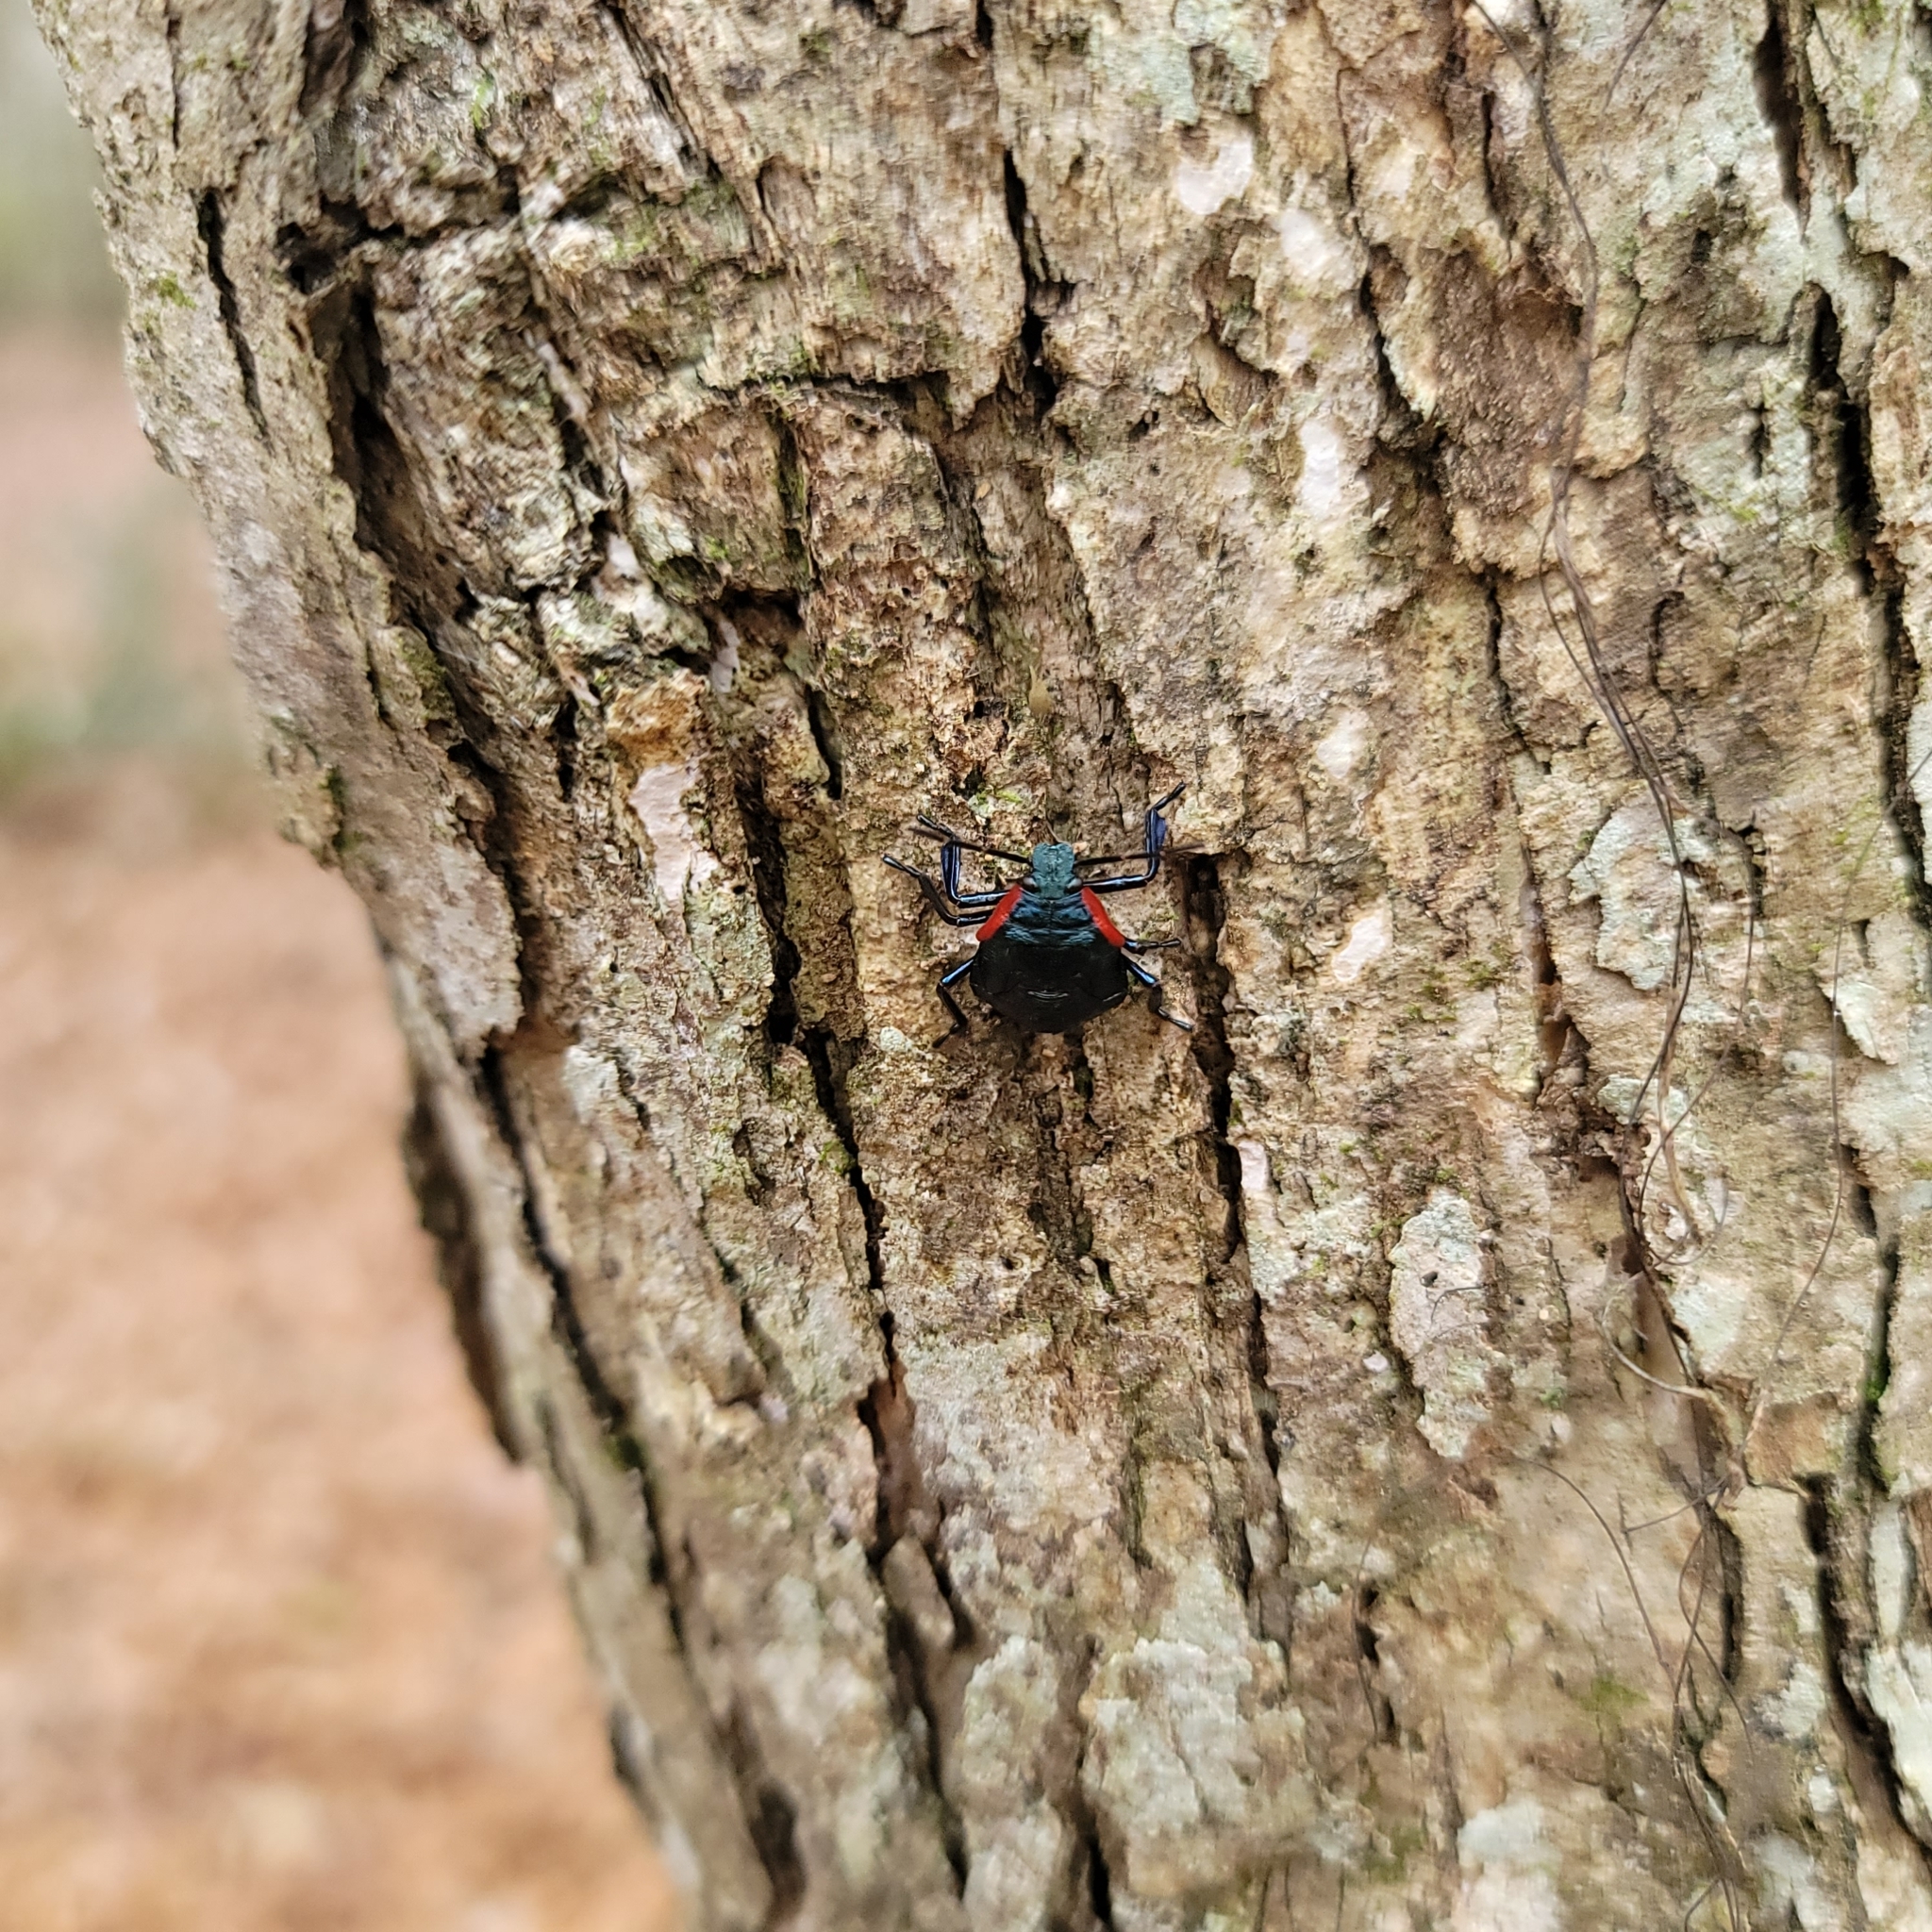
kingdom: Animalia
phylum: Arthropoda
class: Insecta
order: Hemiptera
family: Pentatomidae
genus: Alcaeorrhynchus
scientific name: Alcaeorrhynchus grandis
